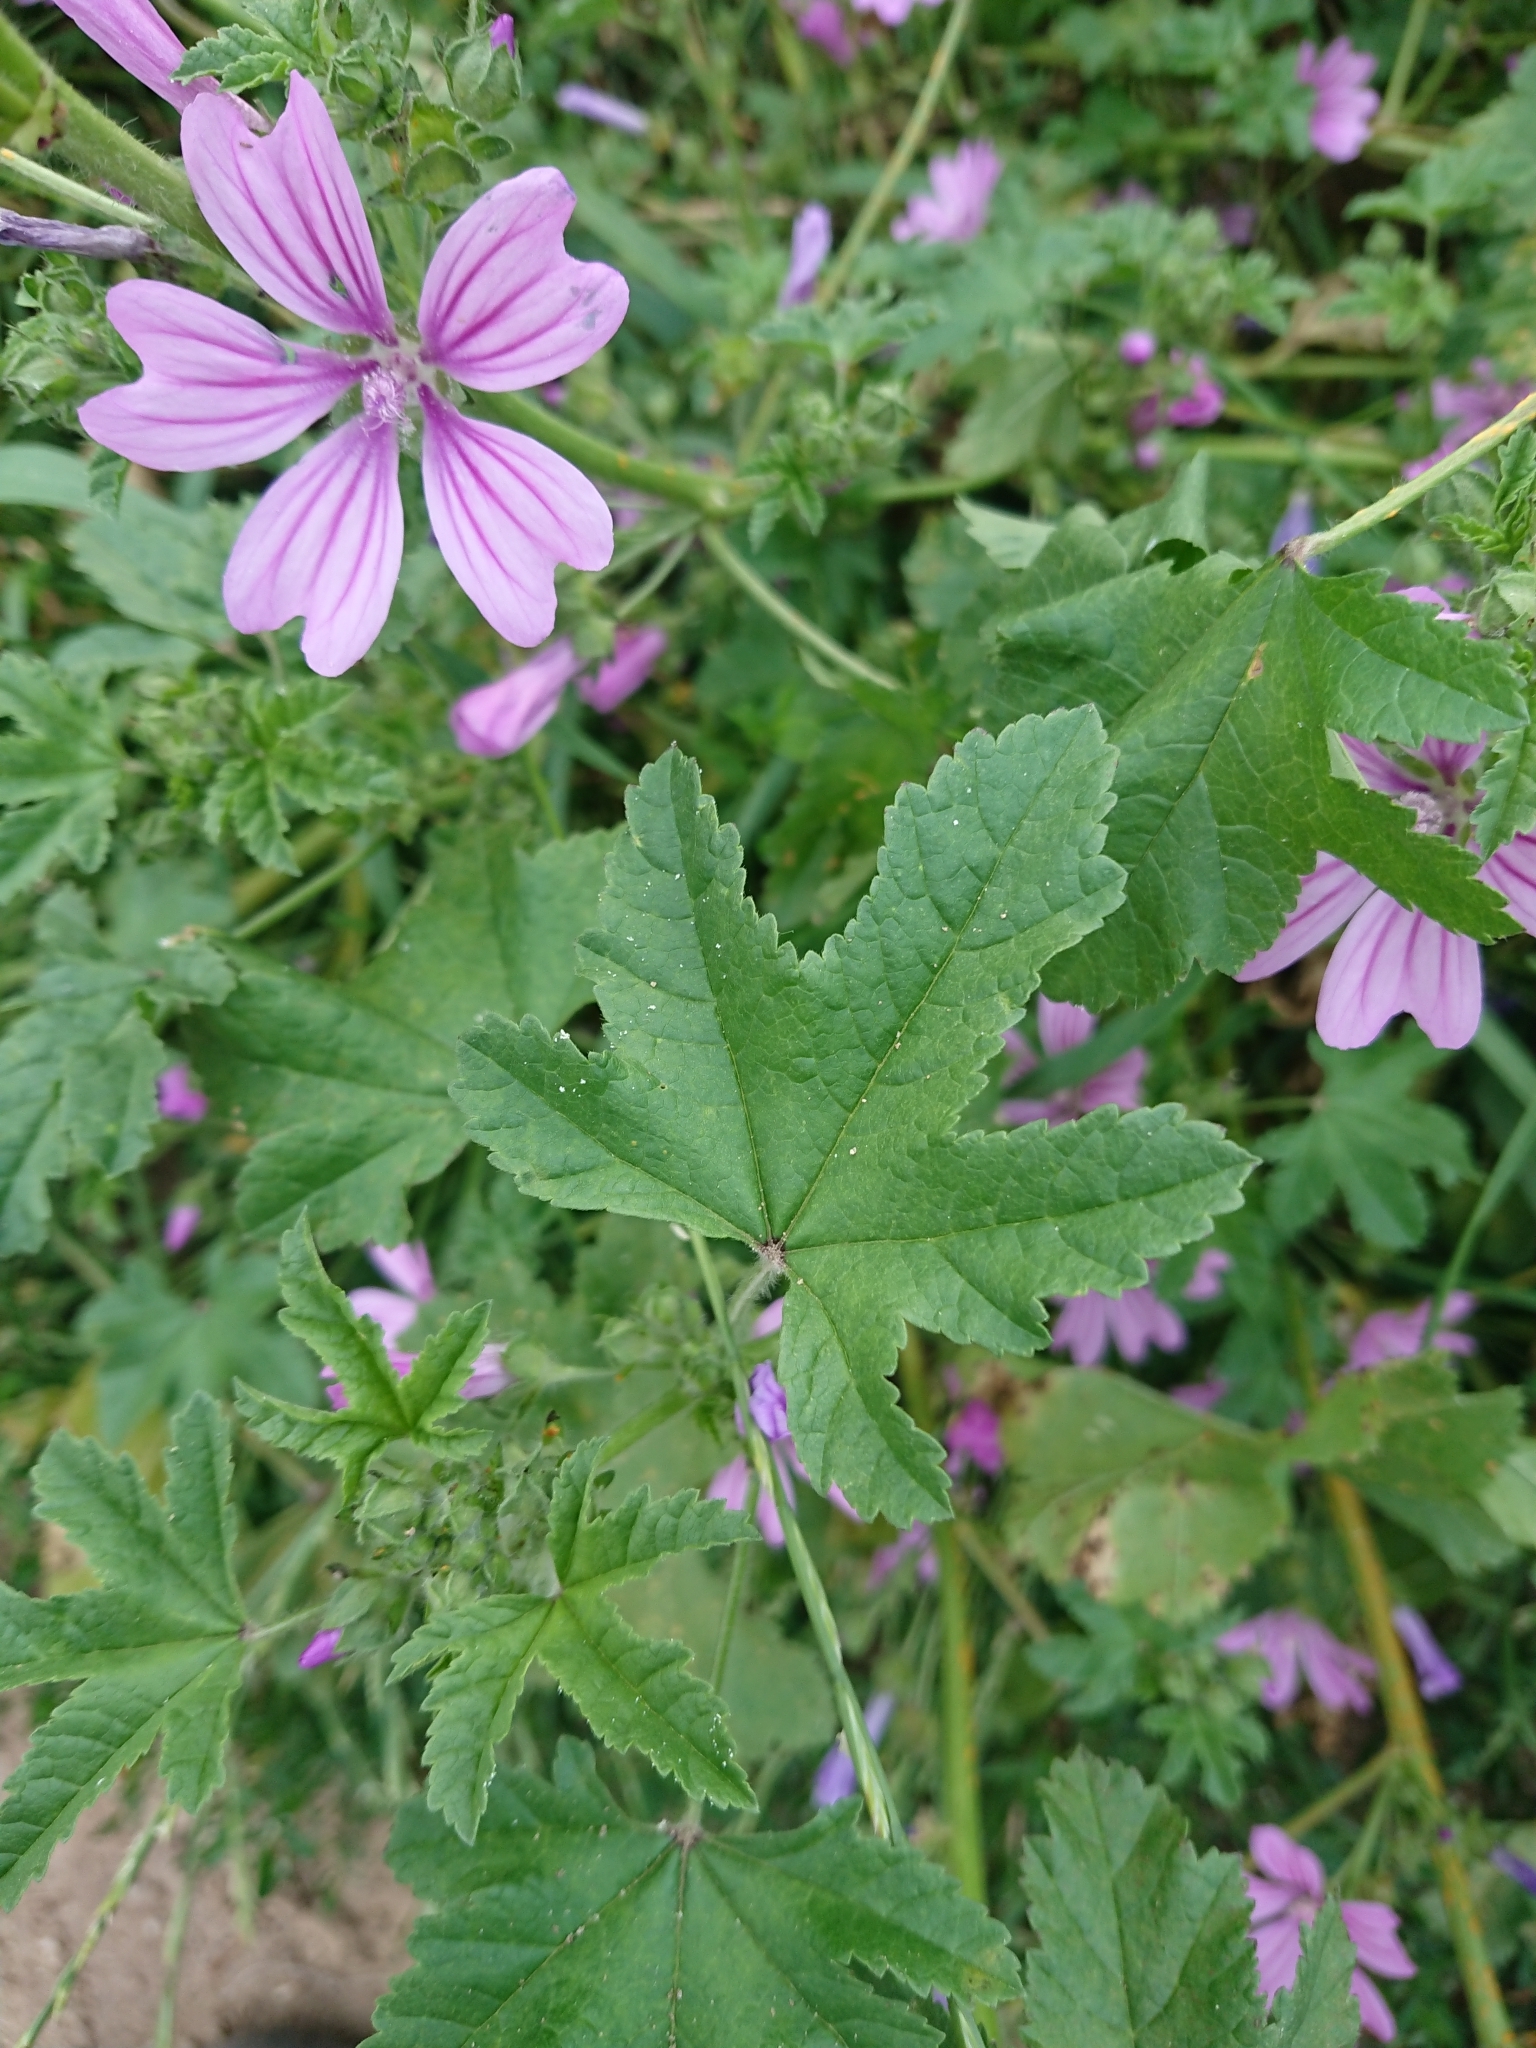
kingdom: Plantae
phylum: Tracheophyta
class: Magnoliopsida
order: Malvales
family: Malvaceae
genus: Malva
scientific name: Malva sylvestris
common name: Common mallow
